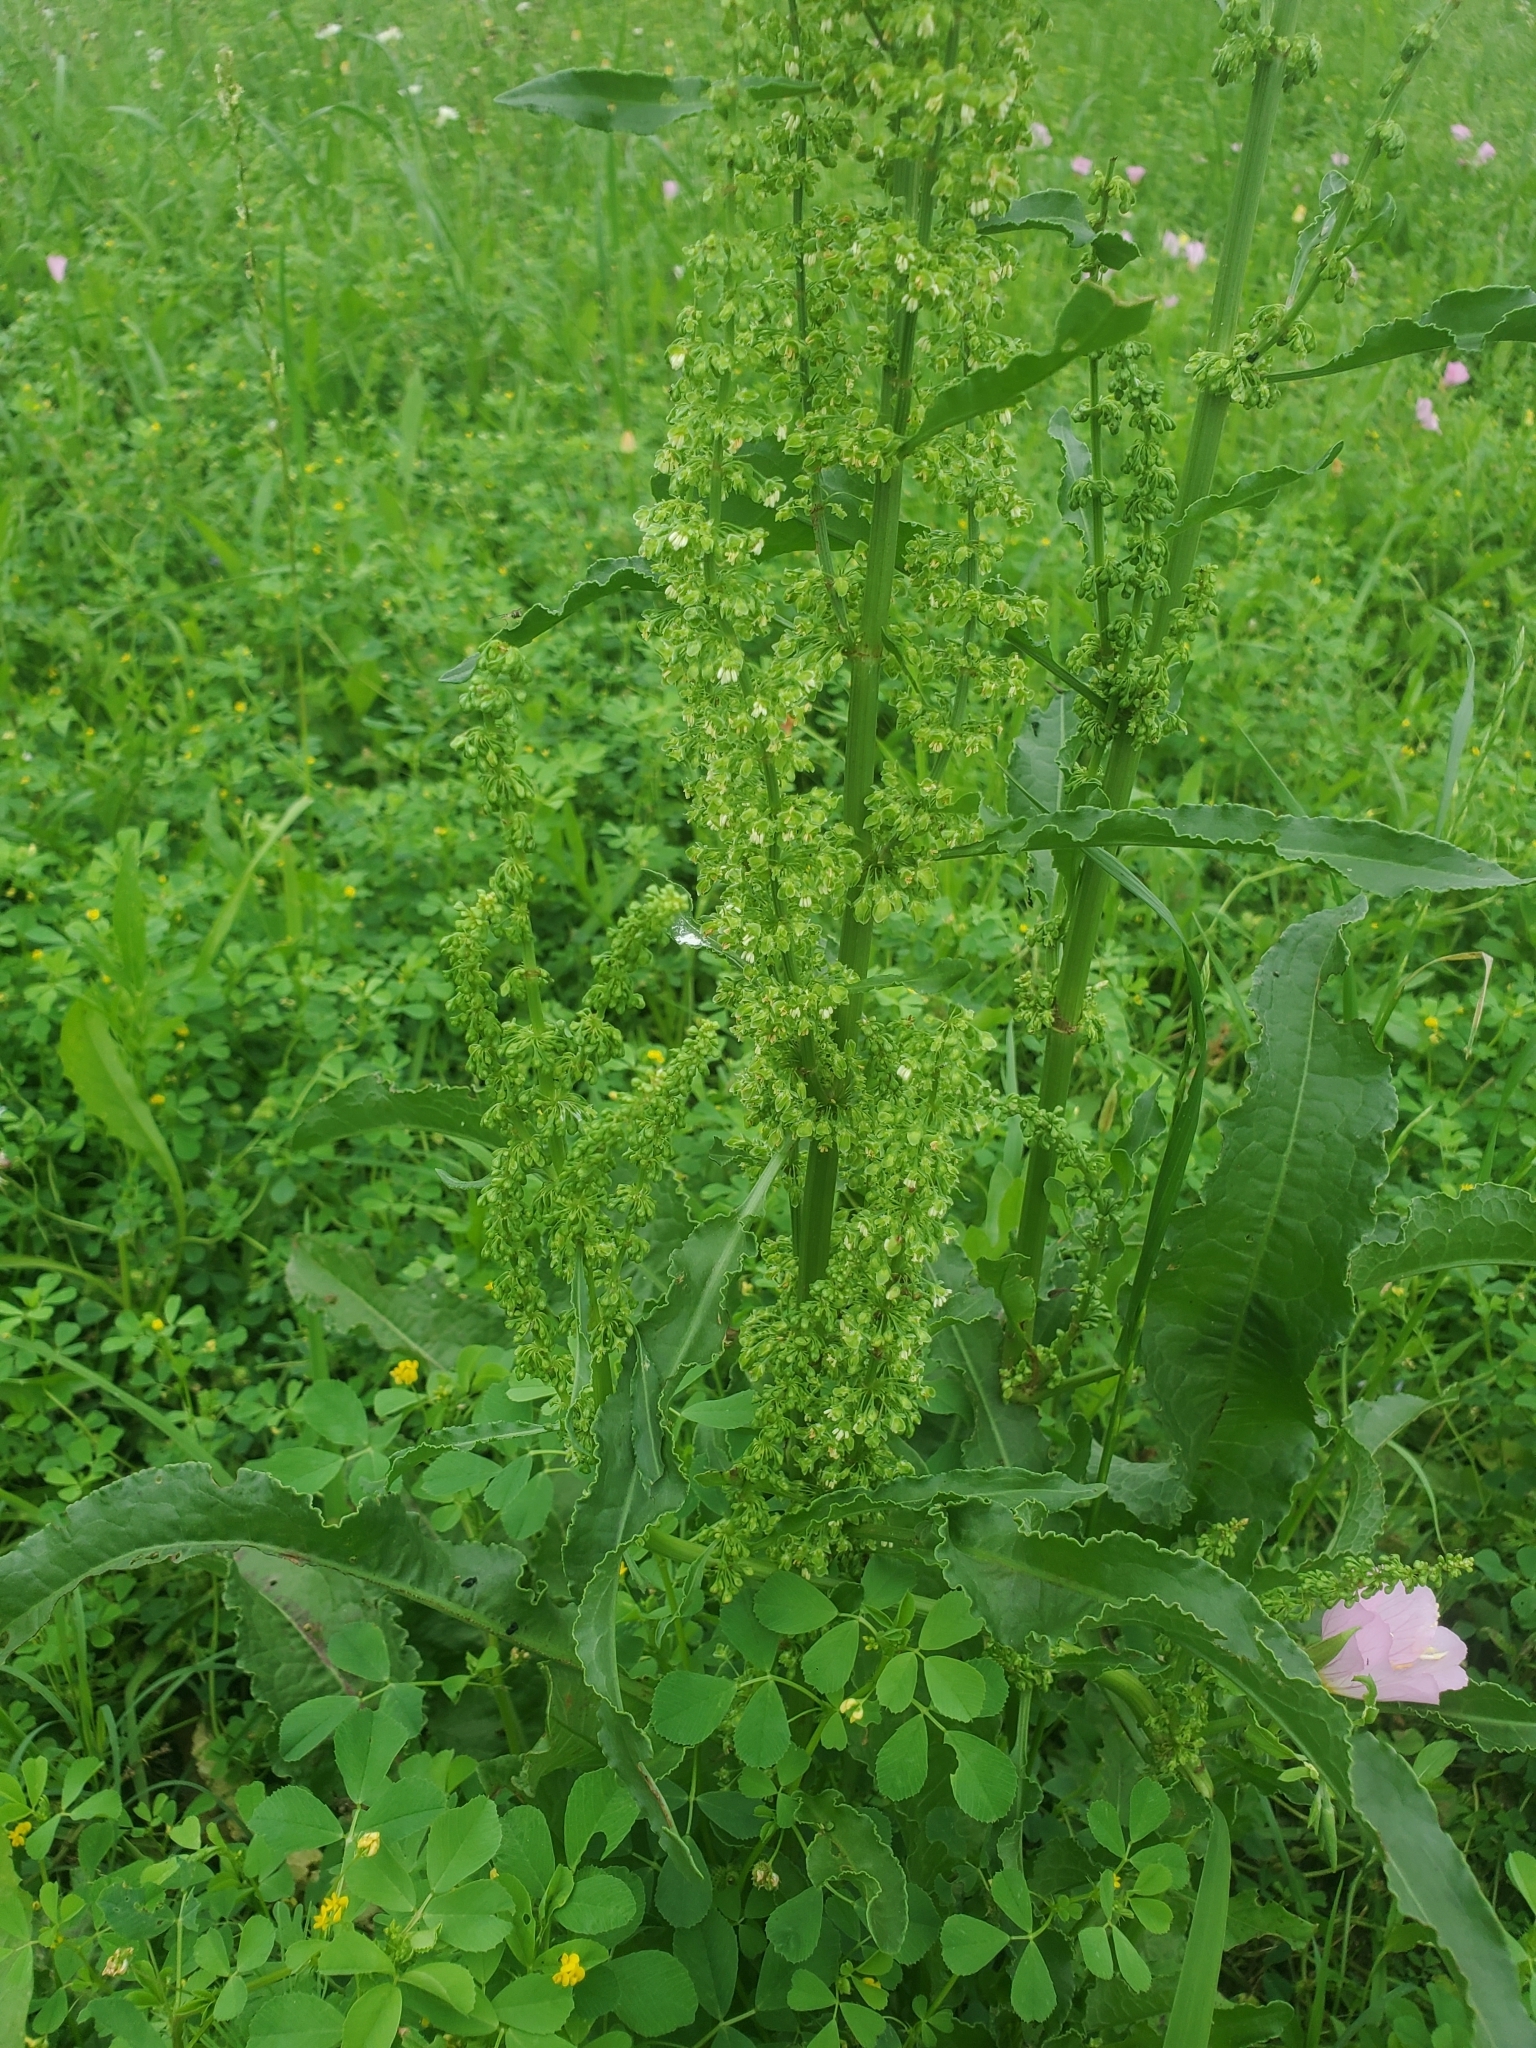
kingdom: Plantae
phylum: Tracheophyta
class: Magnoliopsida
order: Caryophyllales
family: Polygonaceae
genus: Rumex
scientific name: Rumex crispus
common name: Curled dock
